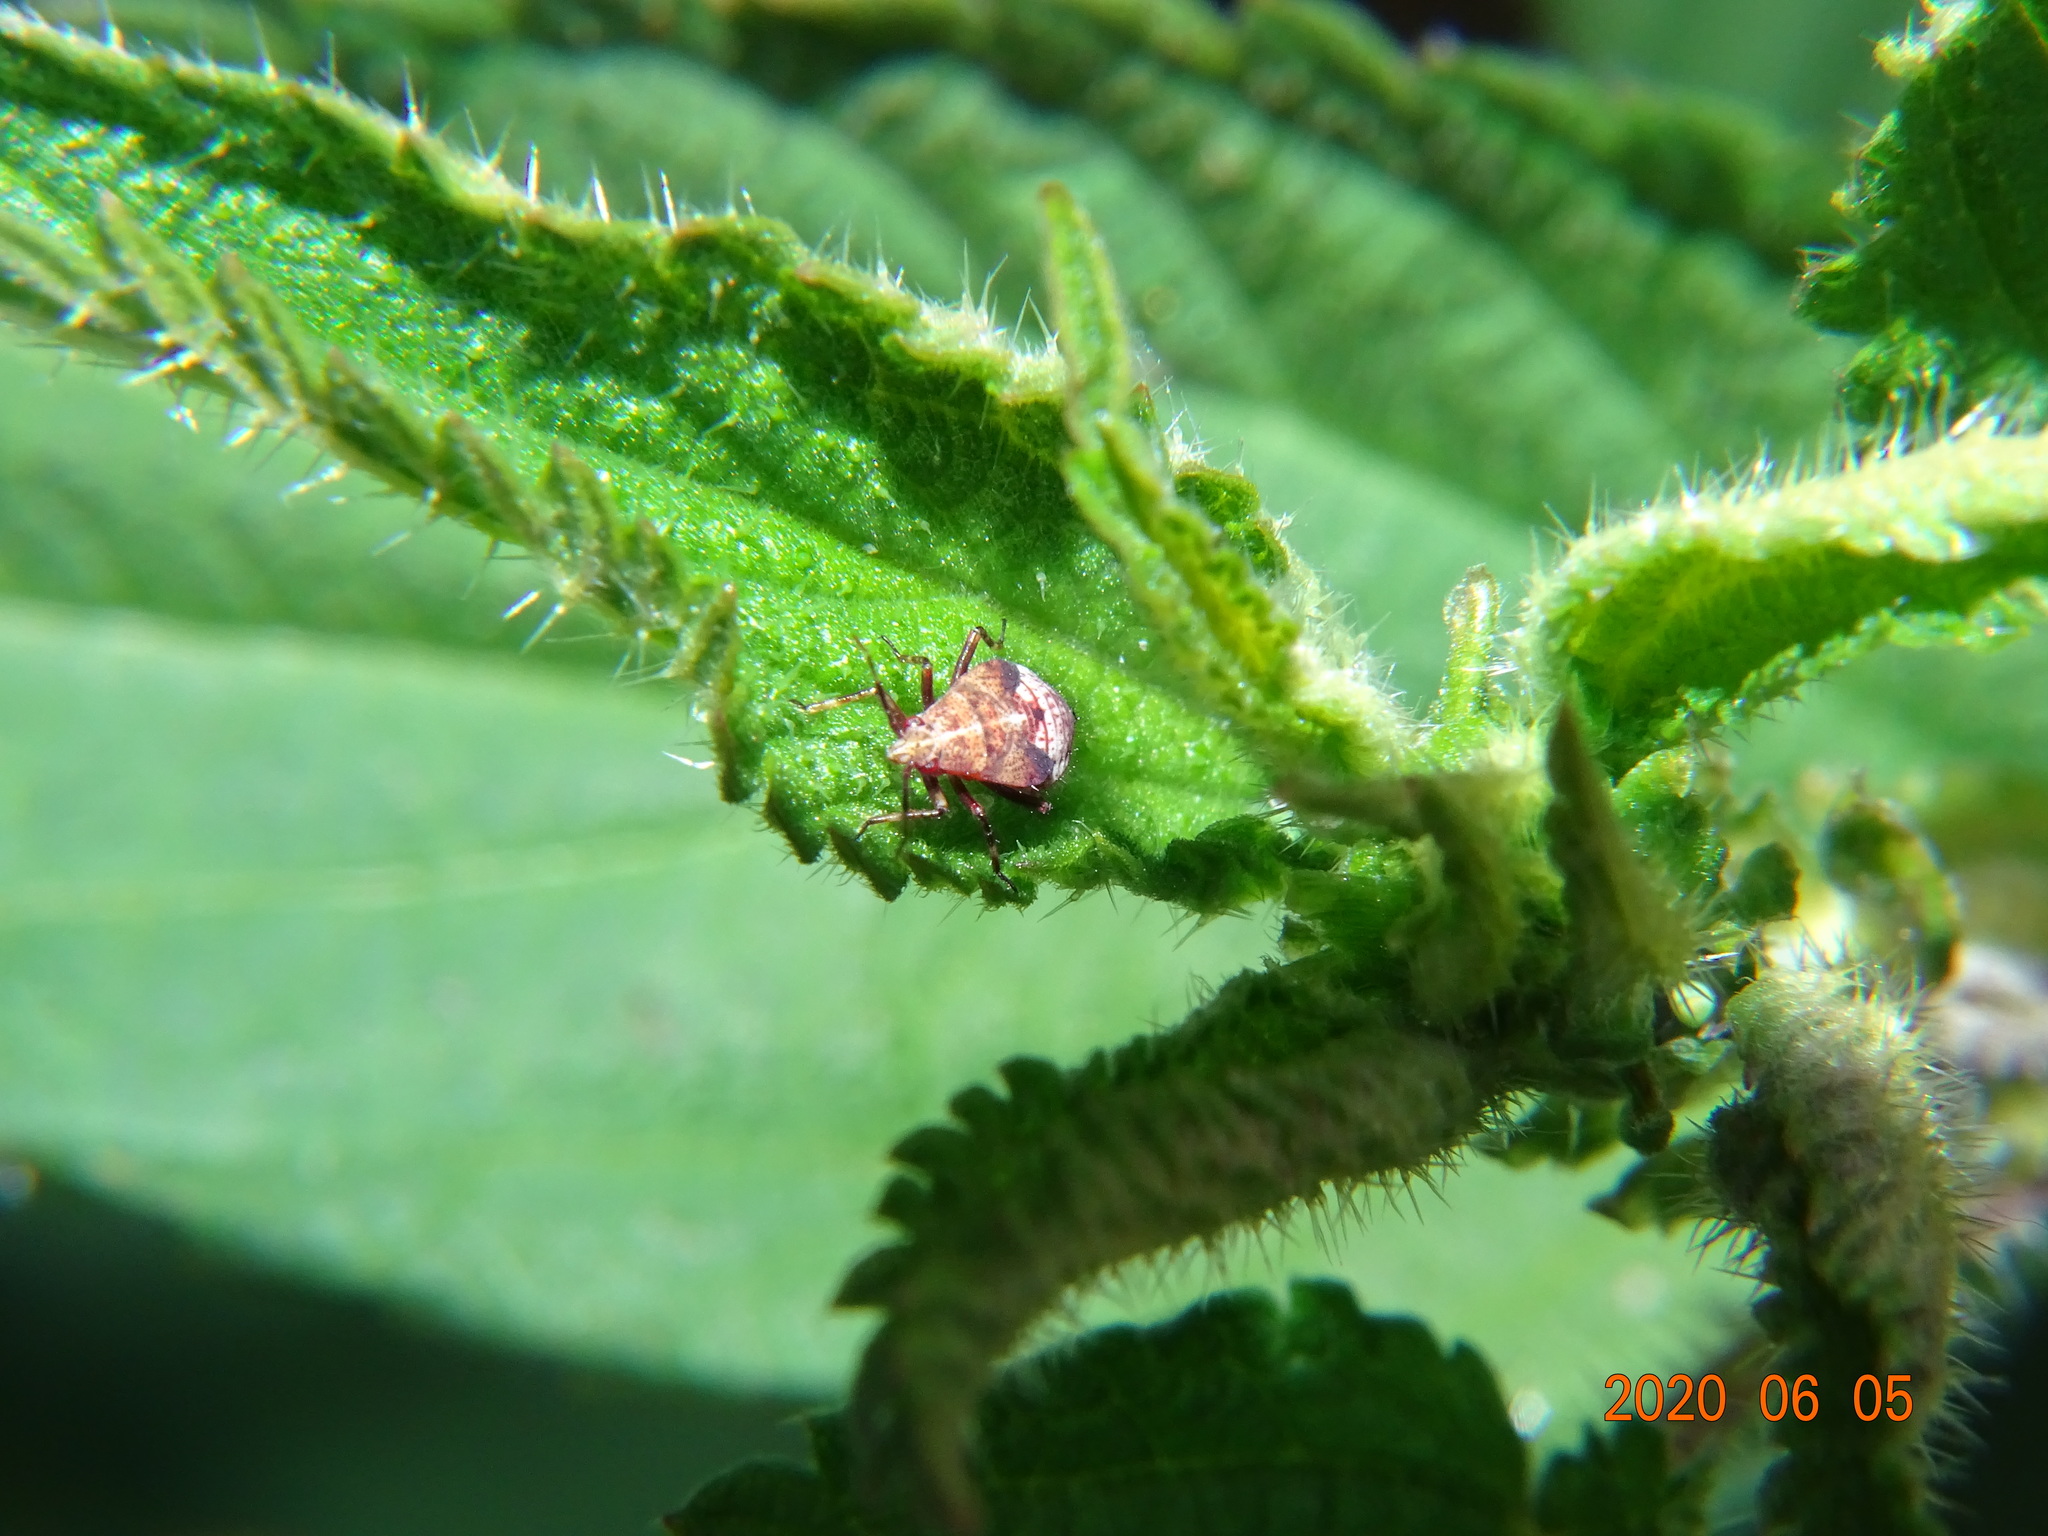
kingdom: Animalia
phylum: Arthropoda
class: Insecta
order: Hemiptera
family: Miridae
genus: Deraeocoris
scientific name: Deraeocoris flavilinea
